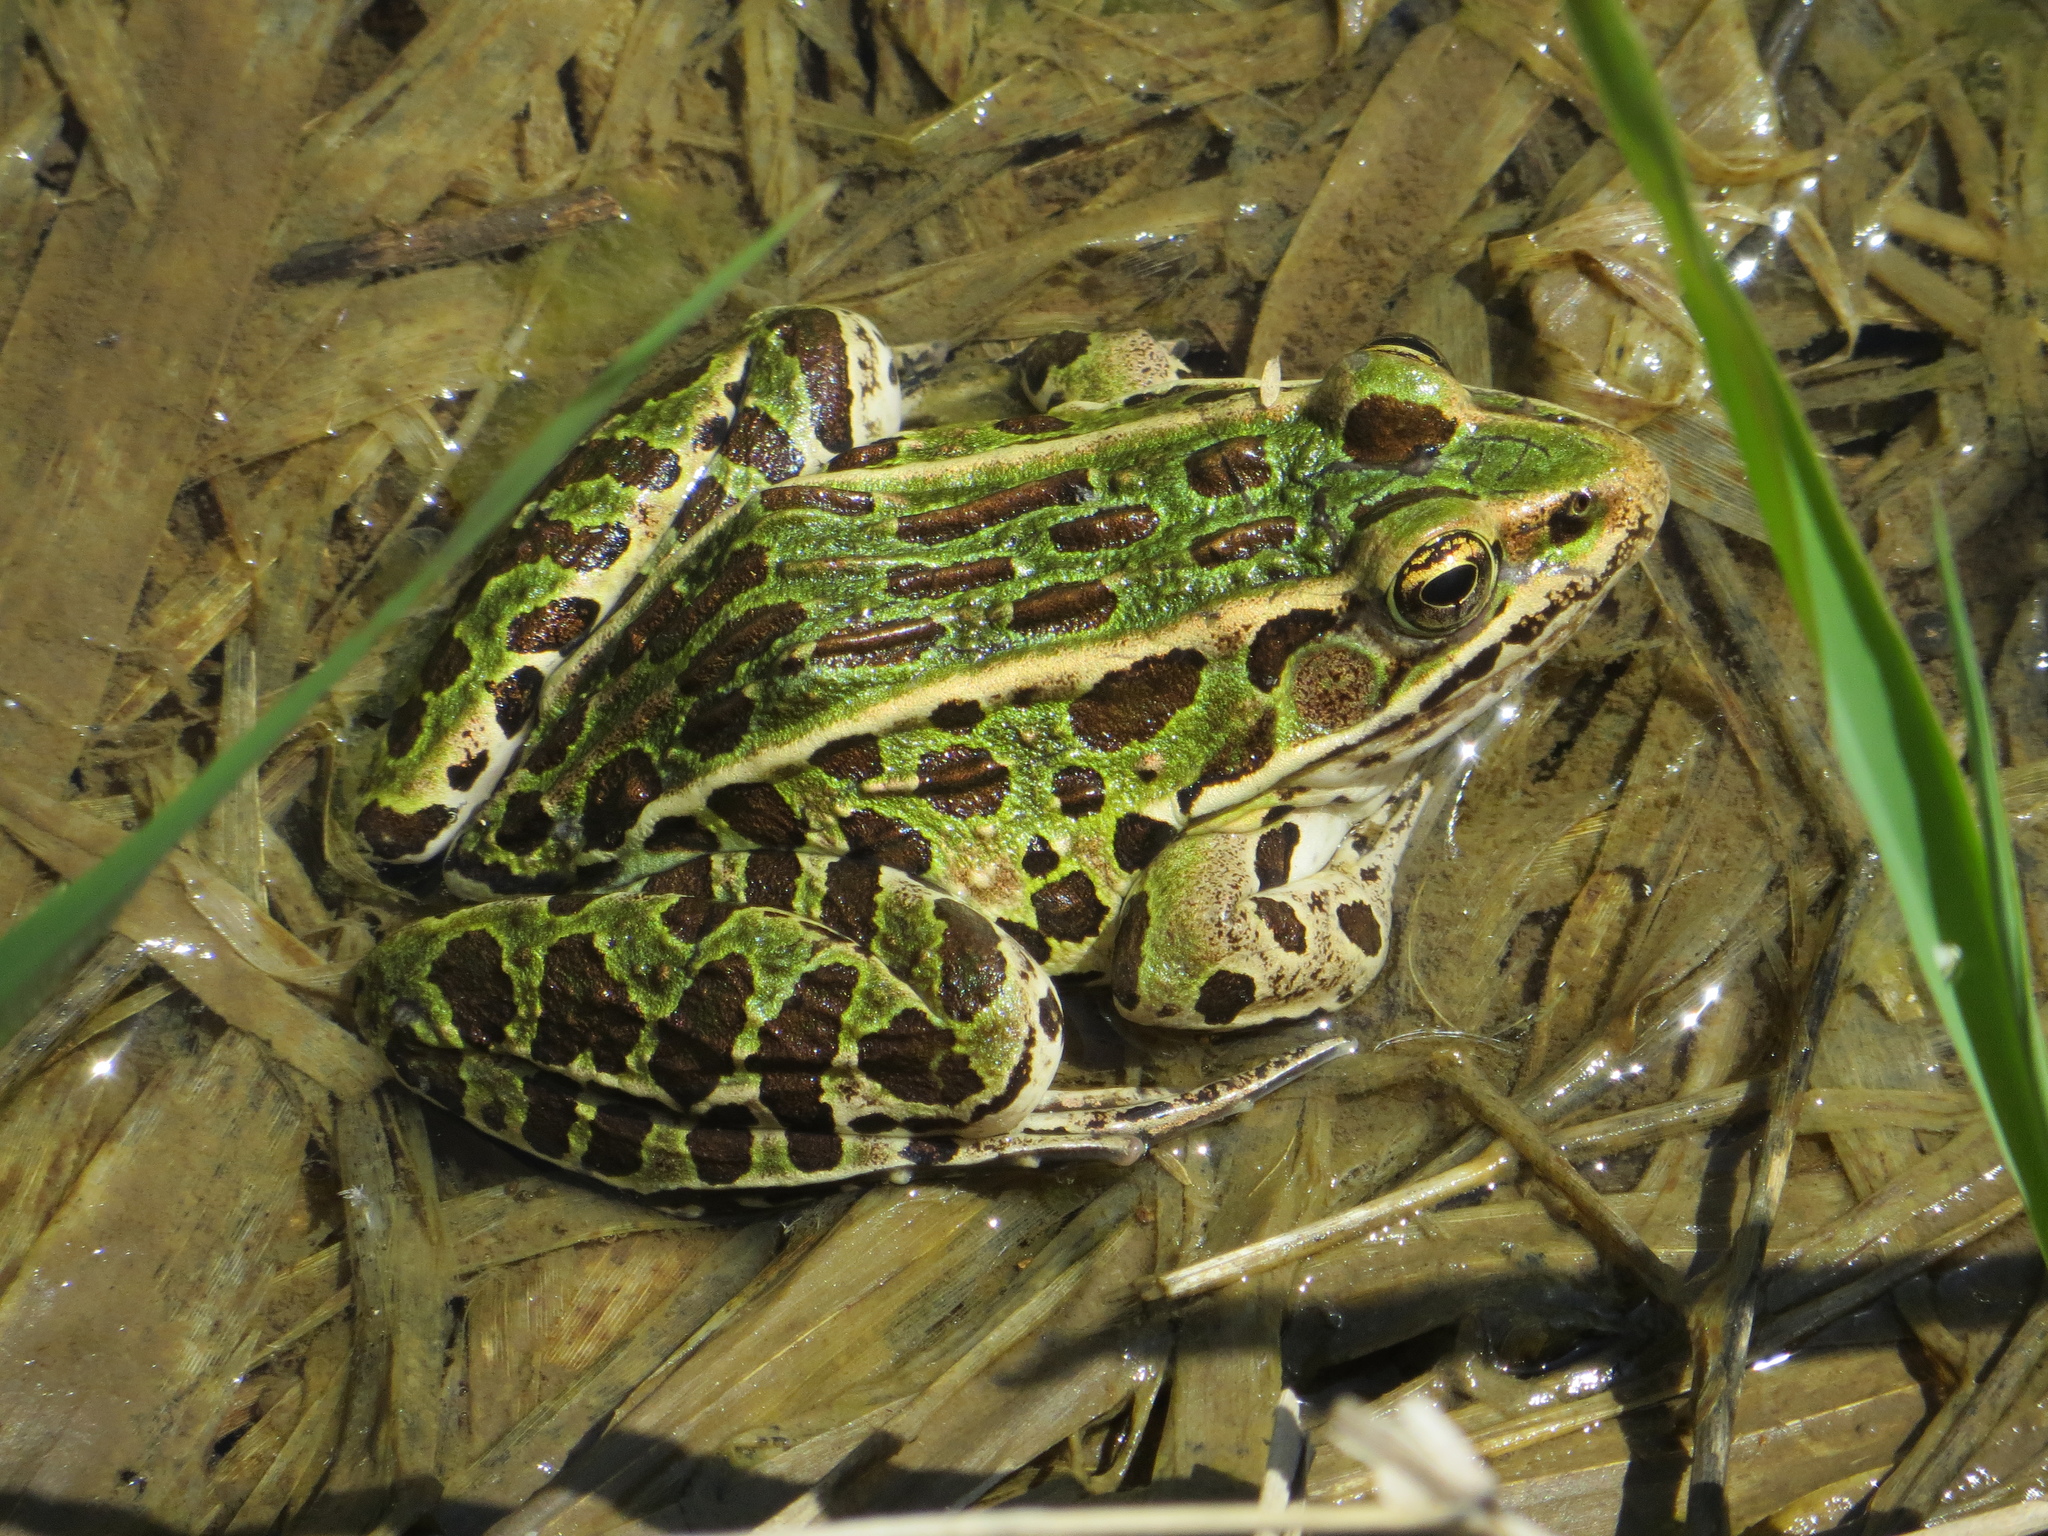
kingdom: Animalia
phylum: Chordata
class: Amphibia
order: Anura
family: Ranidae
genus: Lithobates
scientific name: Lithobates pipiens
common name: Northern leopard frog
